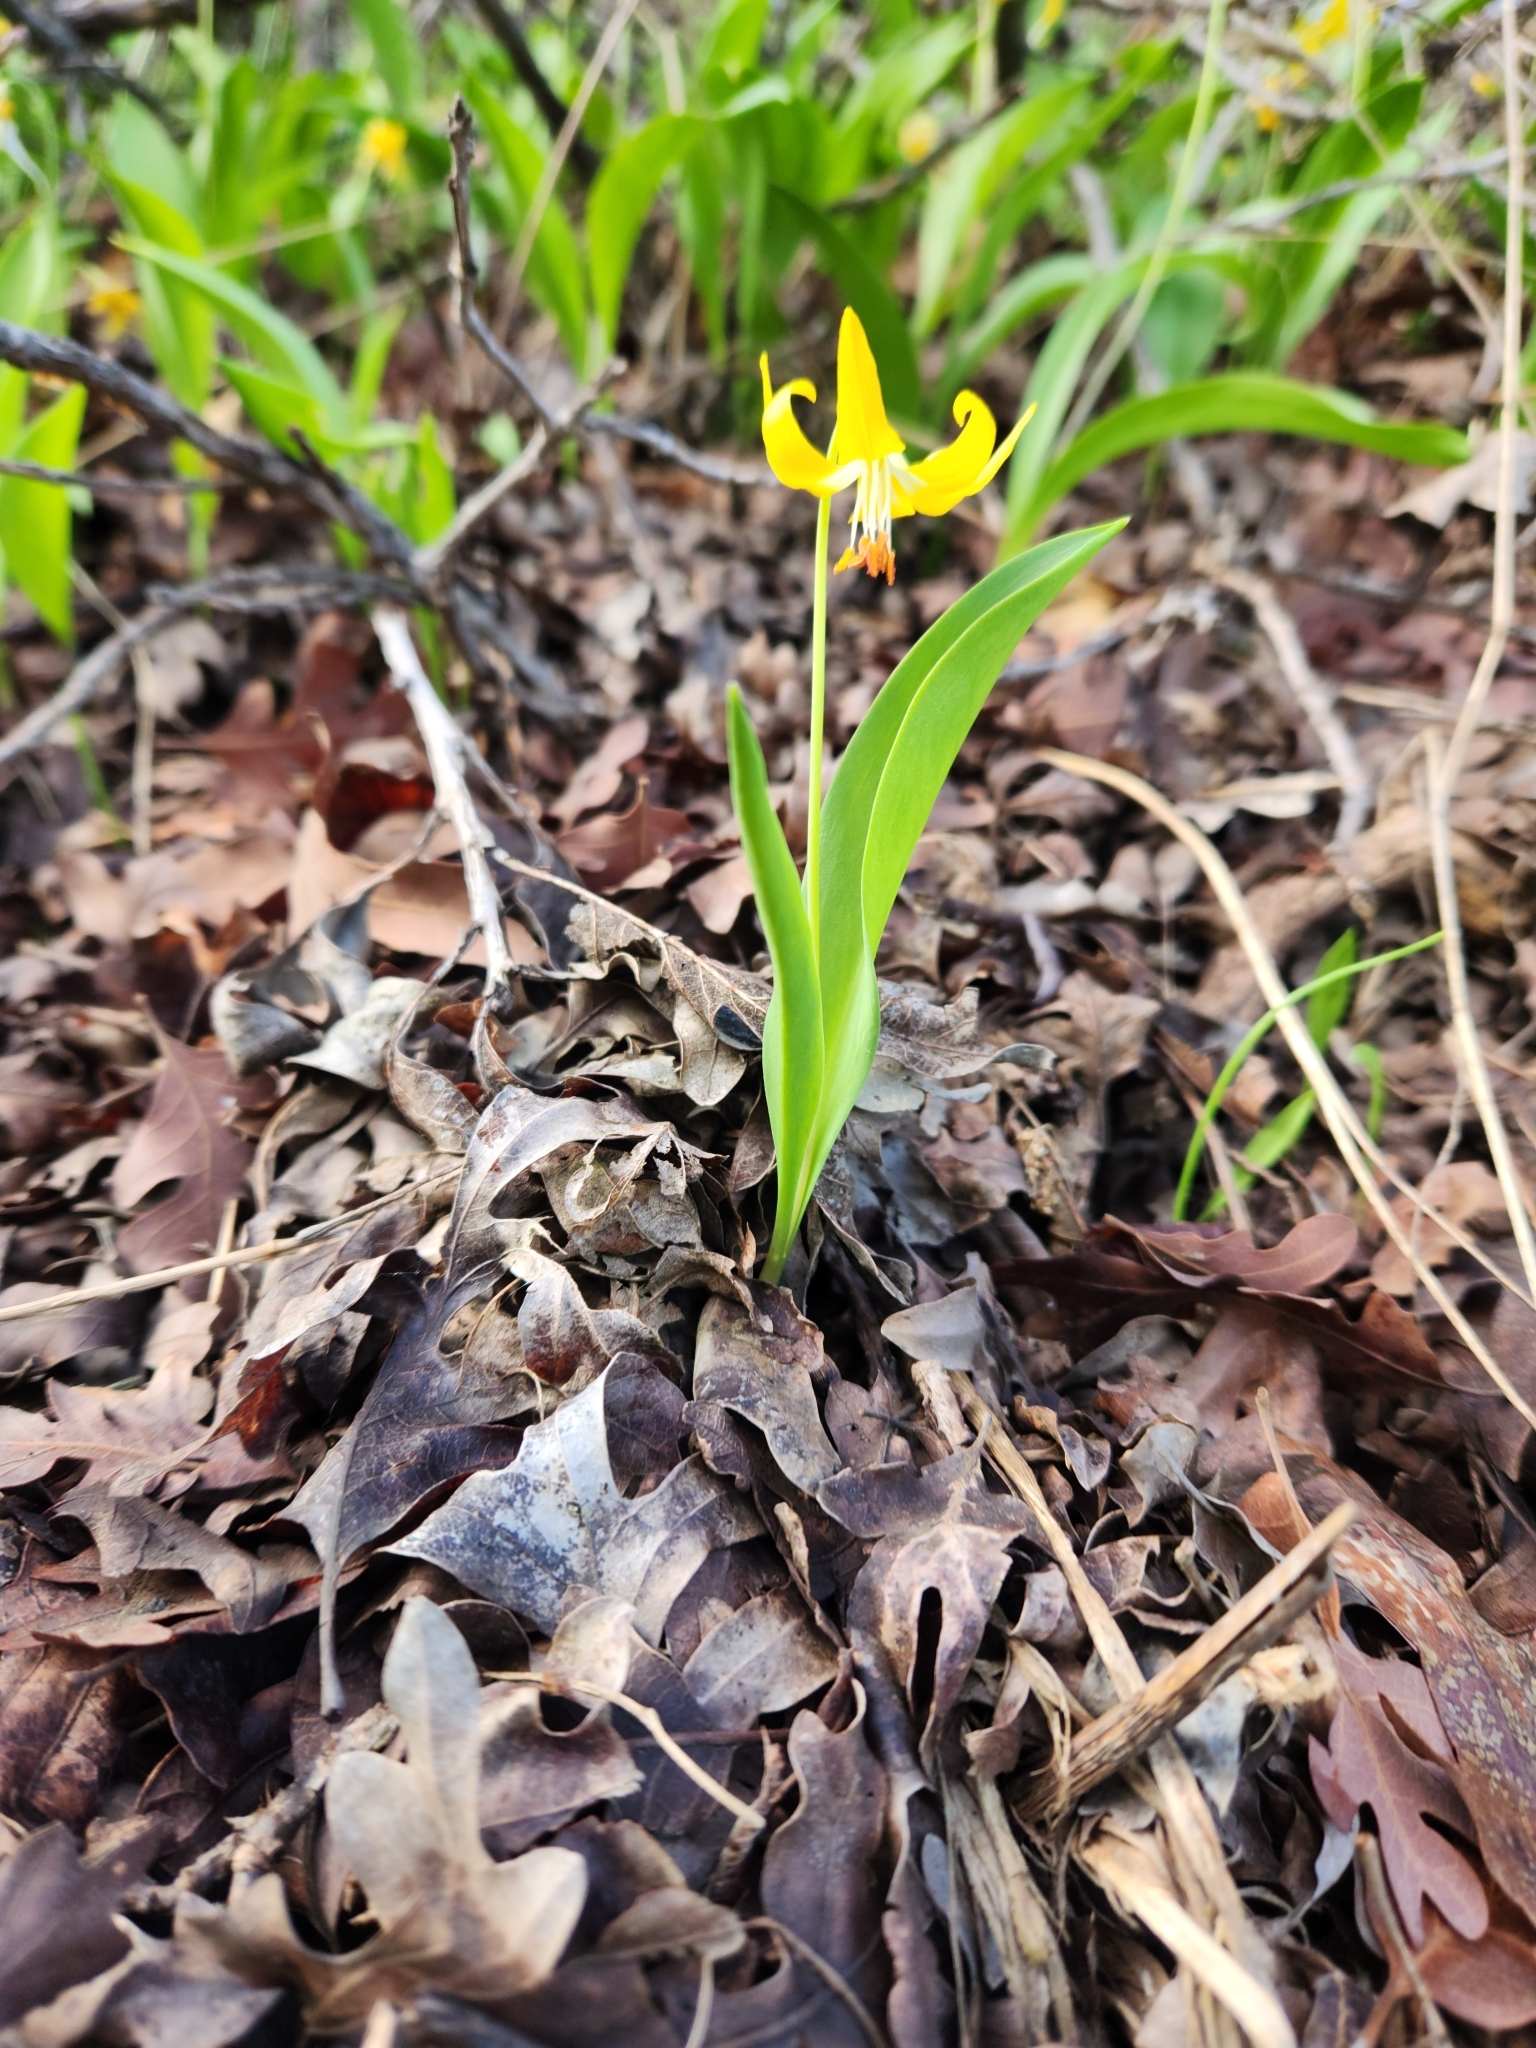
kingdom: Plantae
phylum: Tracheophyta
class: Liliopsida
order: Liliales
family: Liliaceae
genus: Erythronium
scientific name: Erythronium grandiflorum
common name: Avalanche-lily
